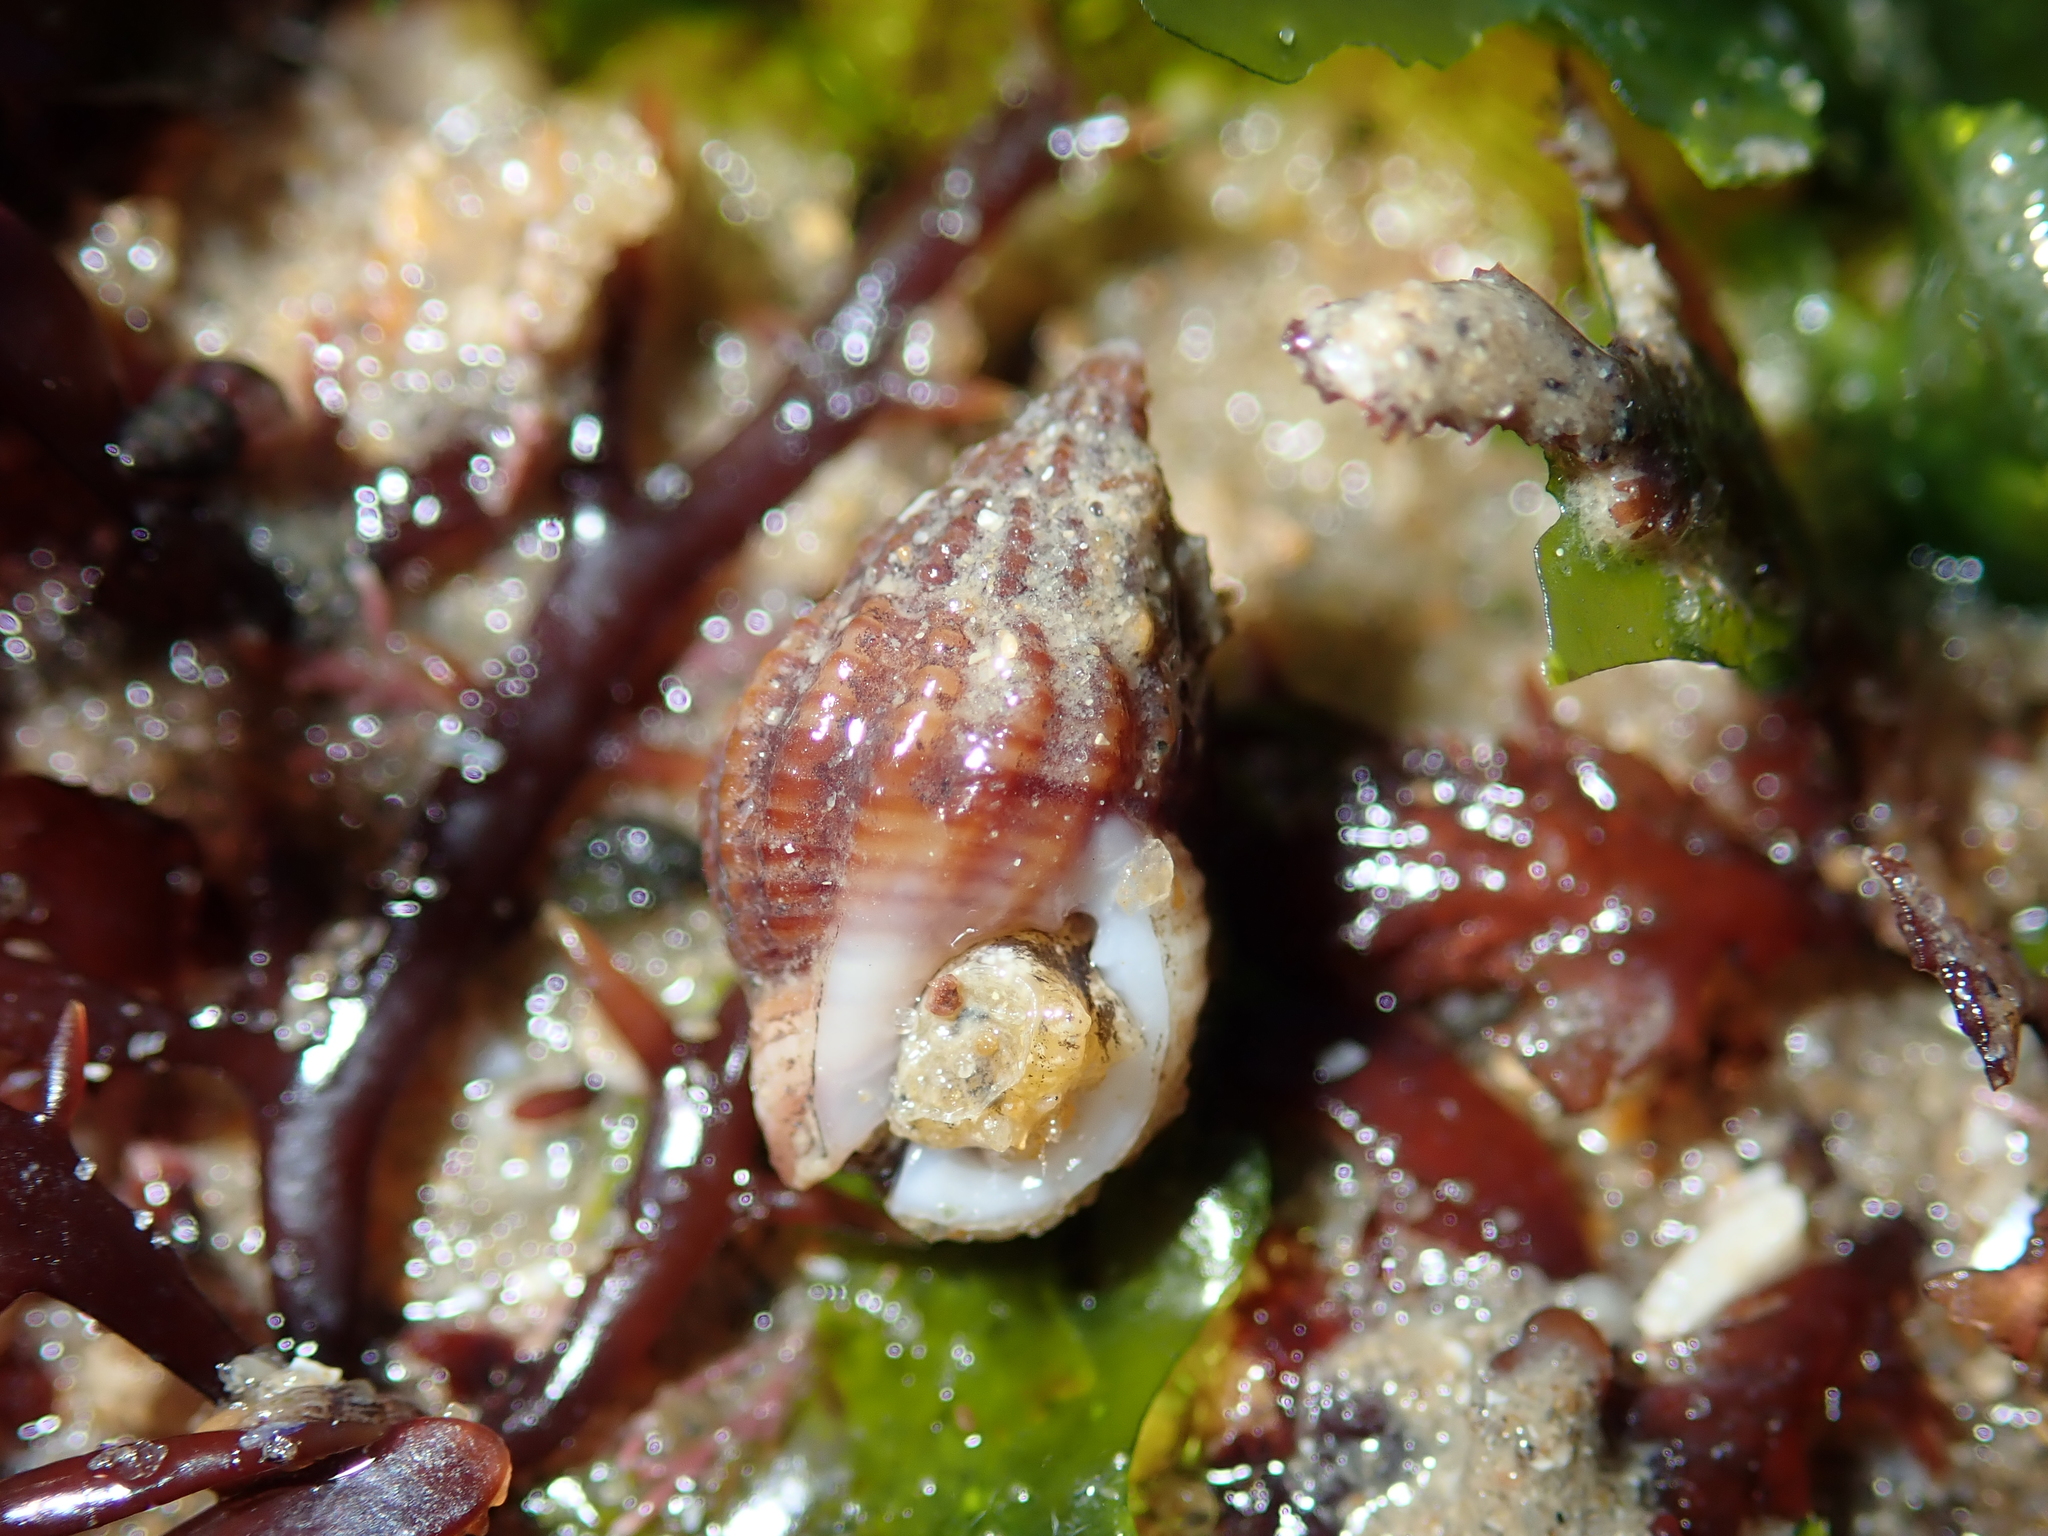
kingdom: Animalia
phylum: Mollusca
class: Gastropoda
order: Neogastropoda
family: Nassariidae
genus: Tritia
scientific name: Tritia incrassata
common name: Thick-lipped dog whelk
